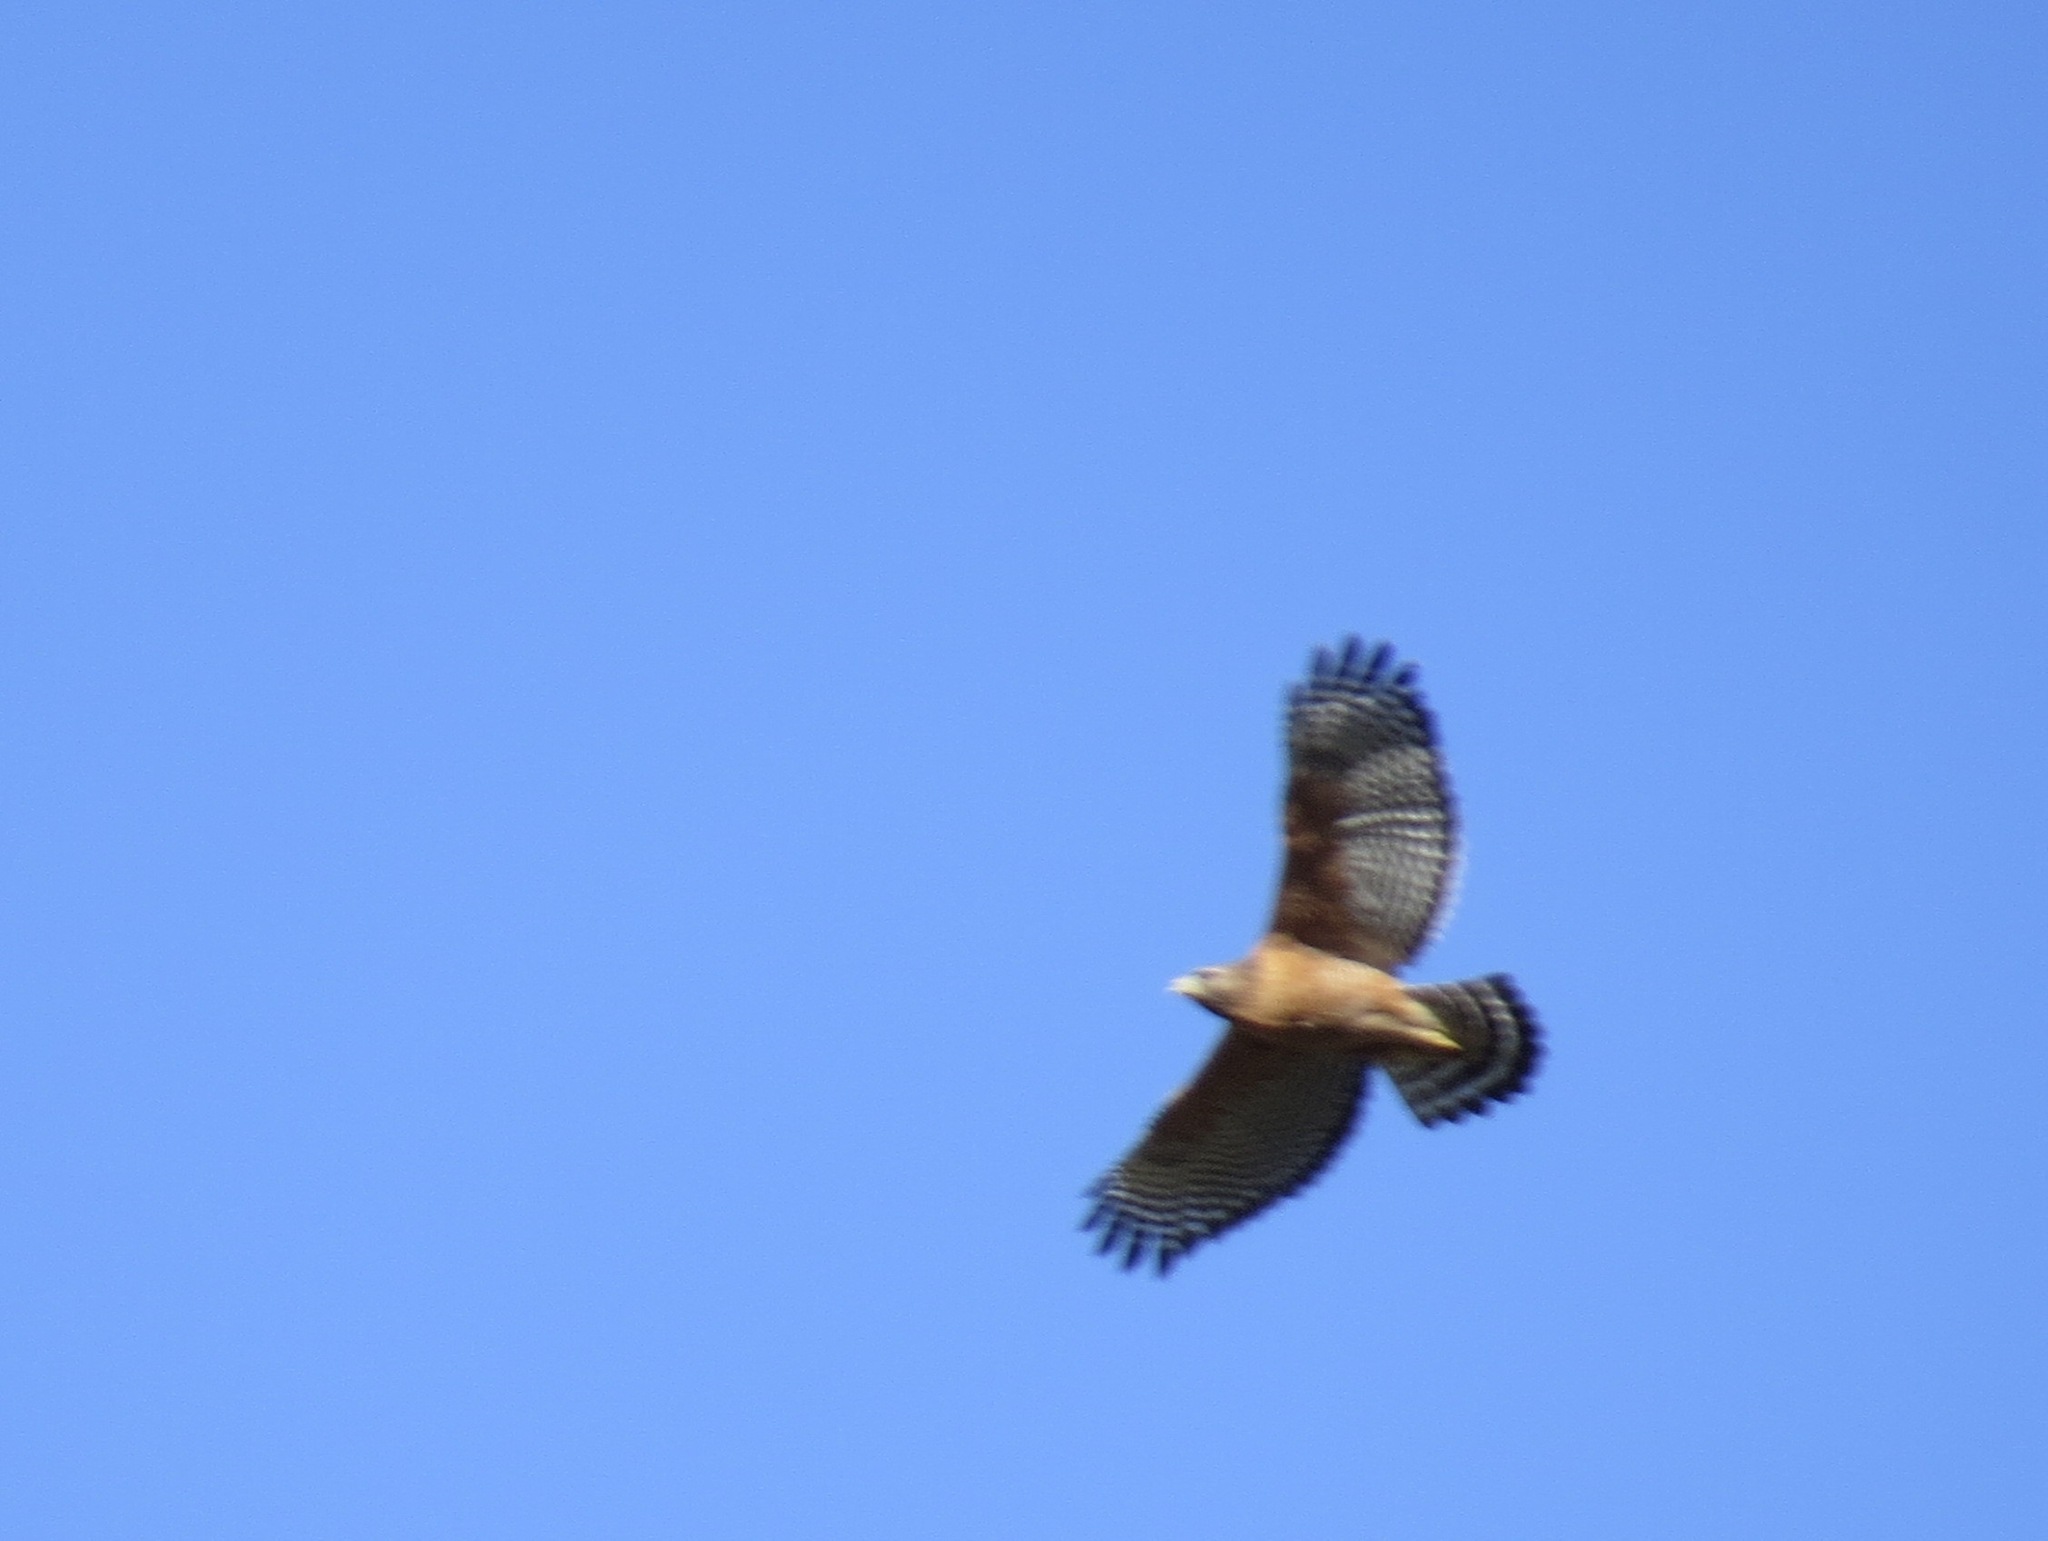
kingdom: Animalia
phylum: Chordata
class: Aves
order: Accipitriformes
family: Accipitridae
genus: Buteo
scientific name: Buteo lineatus
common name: Red-shouldered hawk
